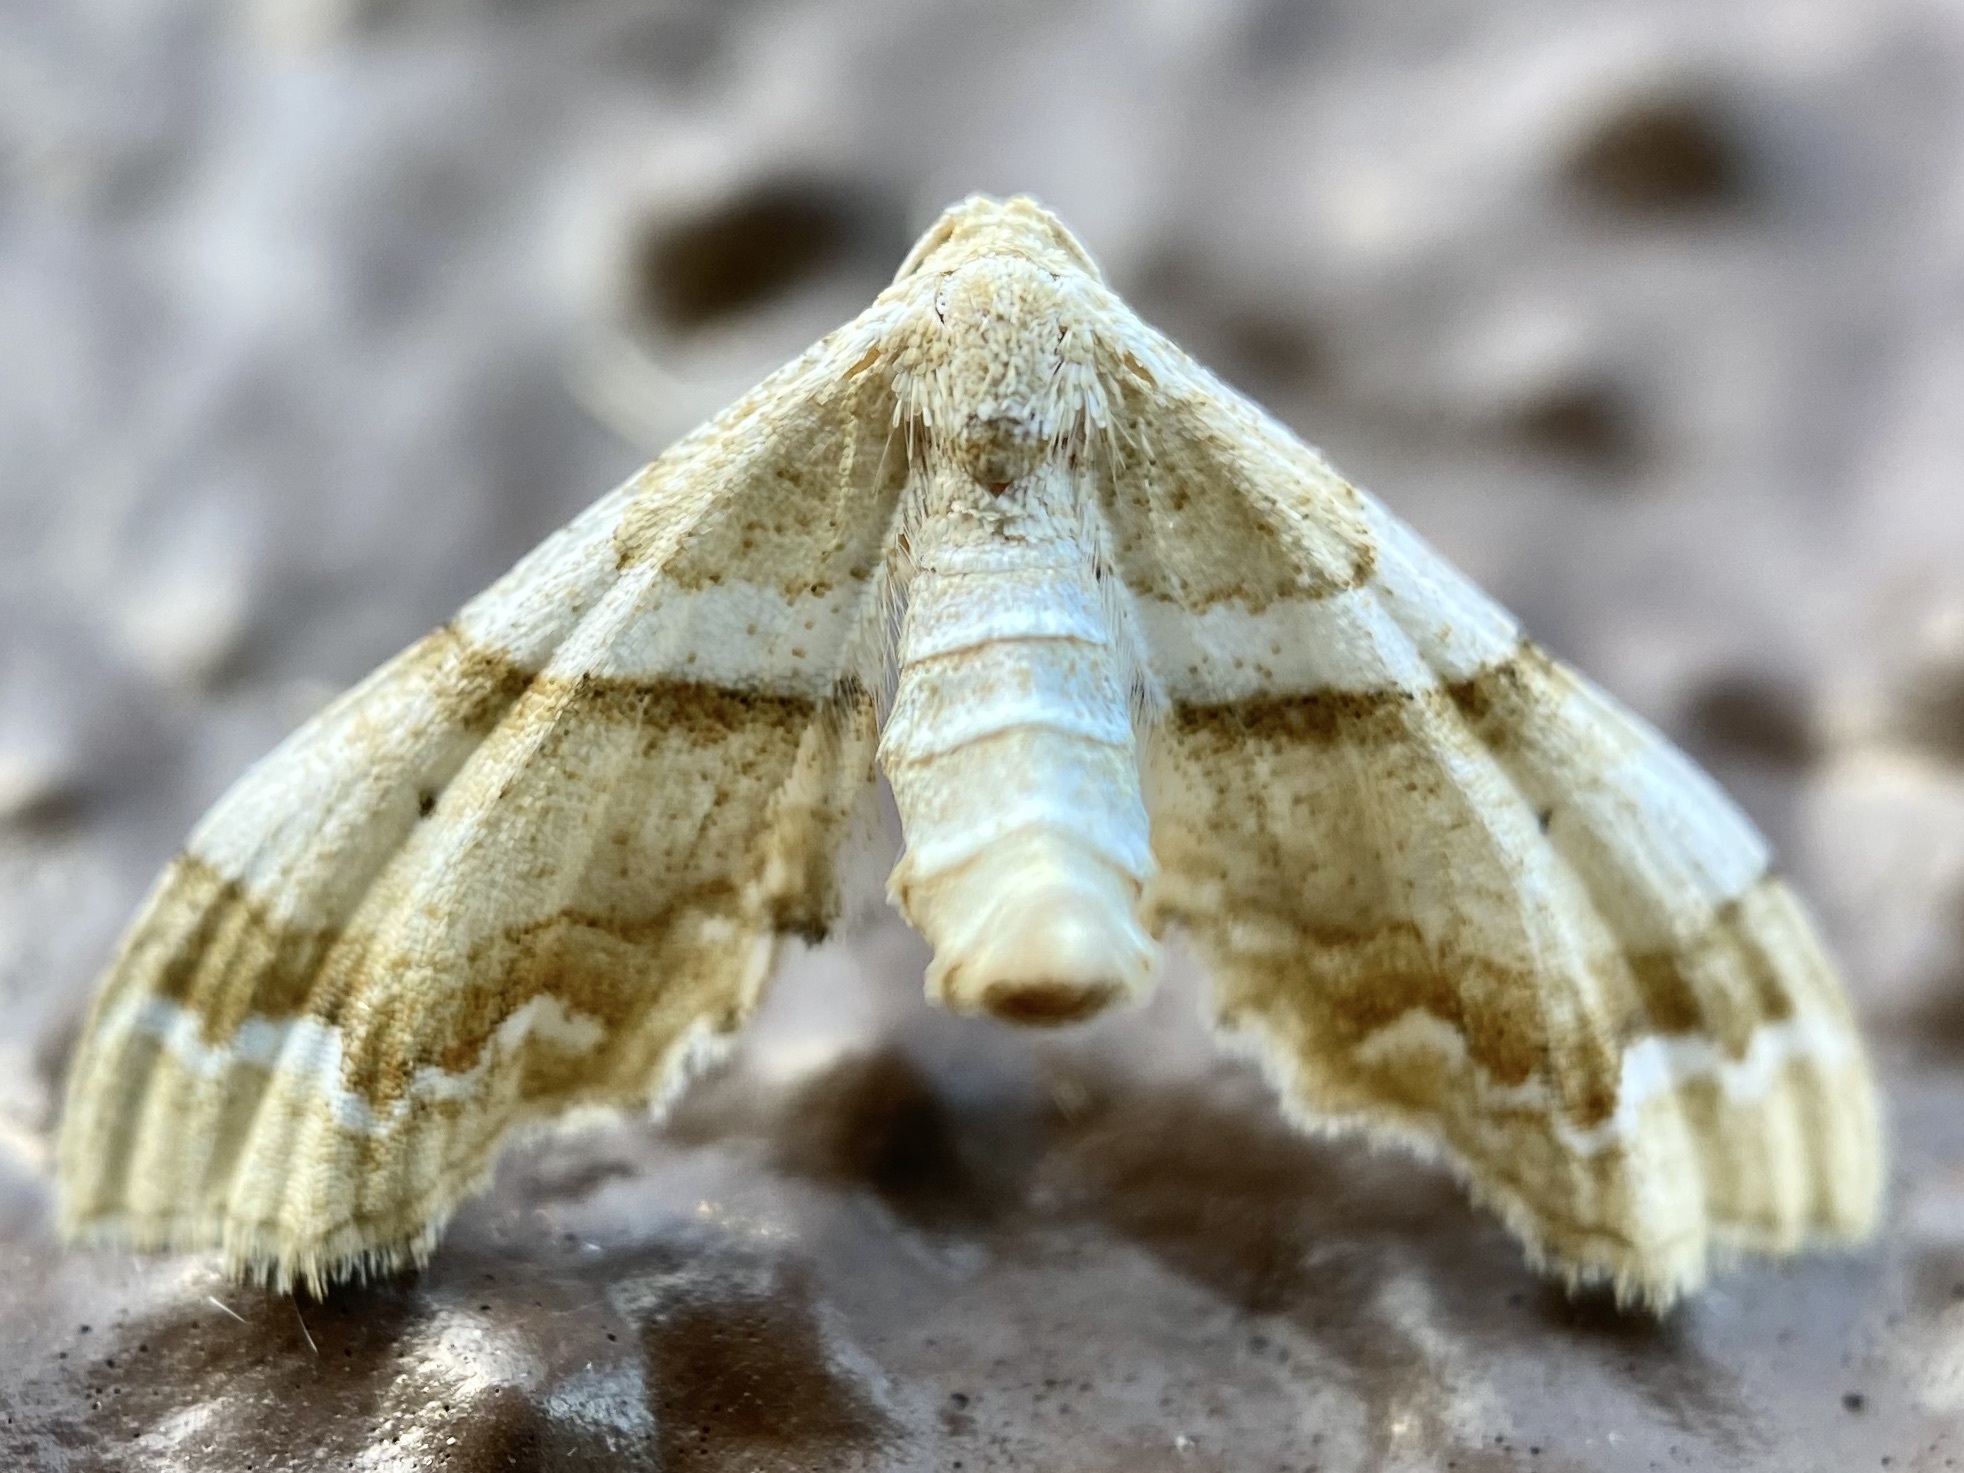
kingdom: Animalia
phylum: Arthropoda
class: Insecta
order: Lepidoptera
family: Geometridae
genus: Odontoptila
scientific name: Odontoptila obrimo
